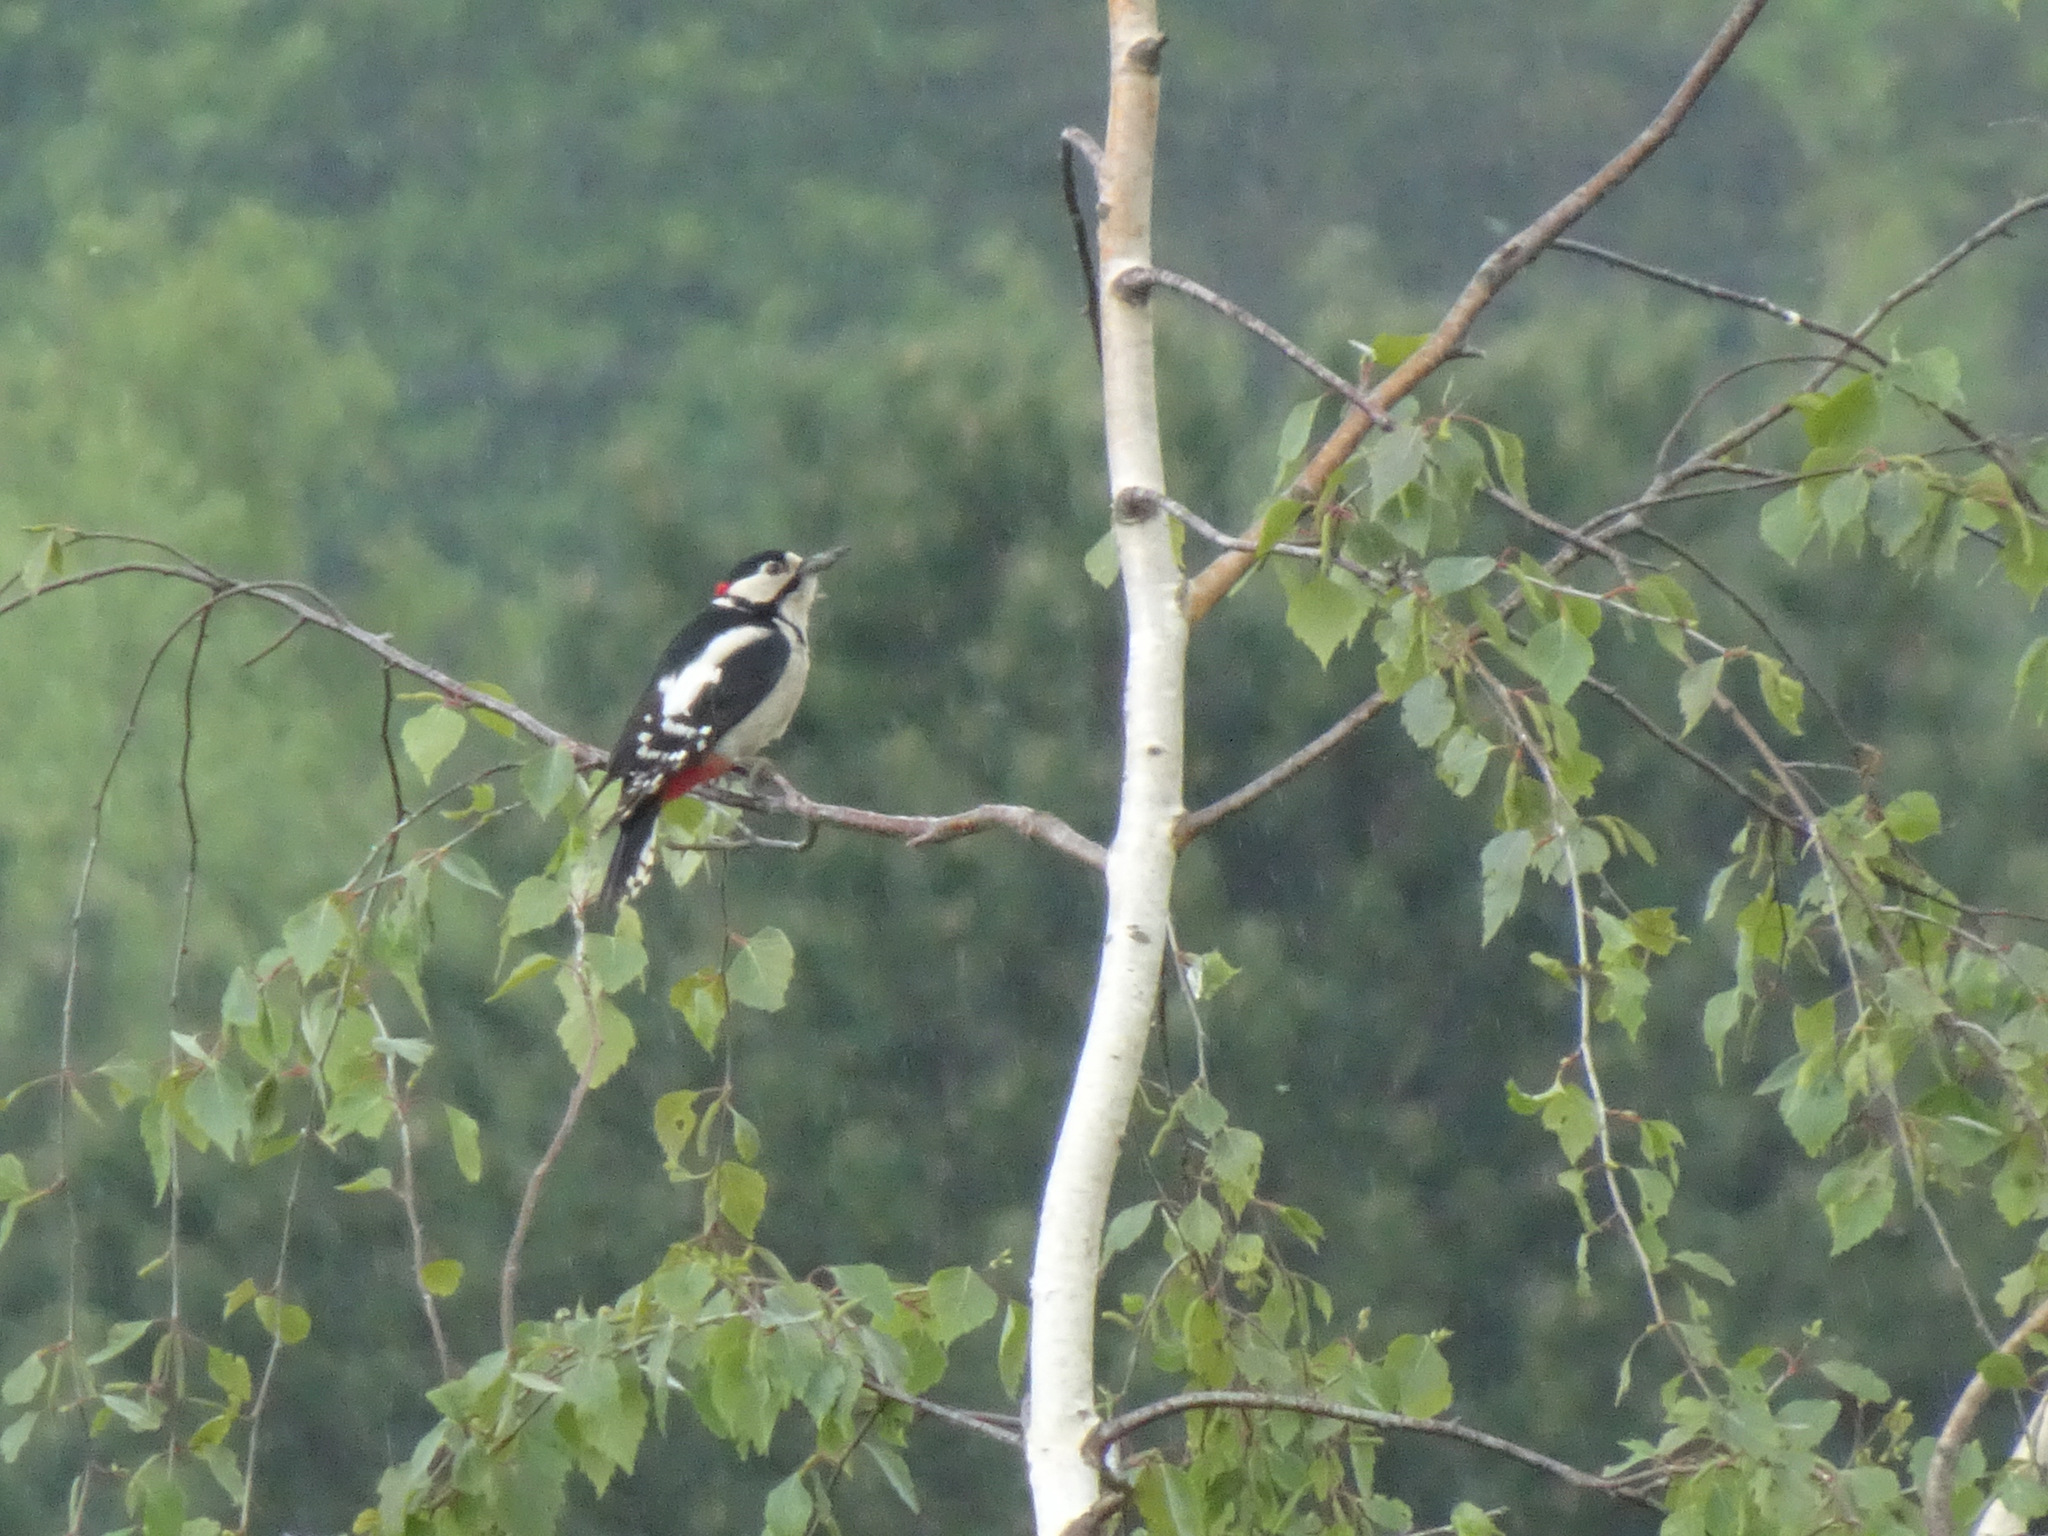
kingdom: Animalia
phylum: Chordata
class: Aves
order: Piciformes
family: Picidae
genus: Dendrocopos
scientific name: Dendrocopos major
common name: Great spotted woodpecker
